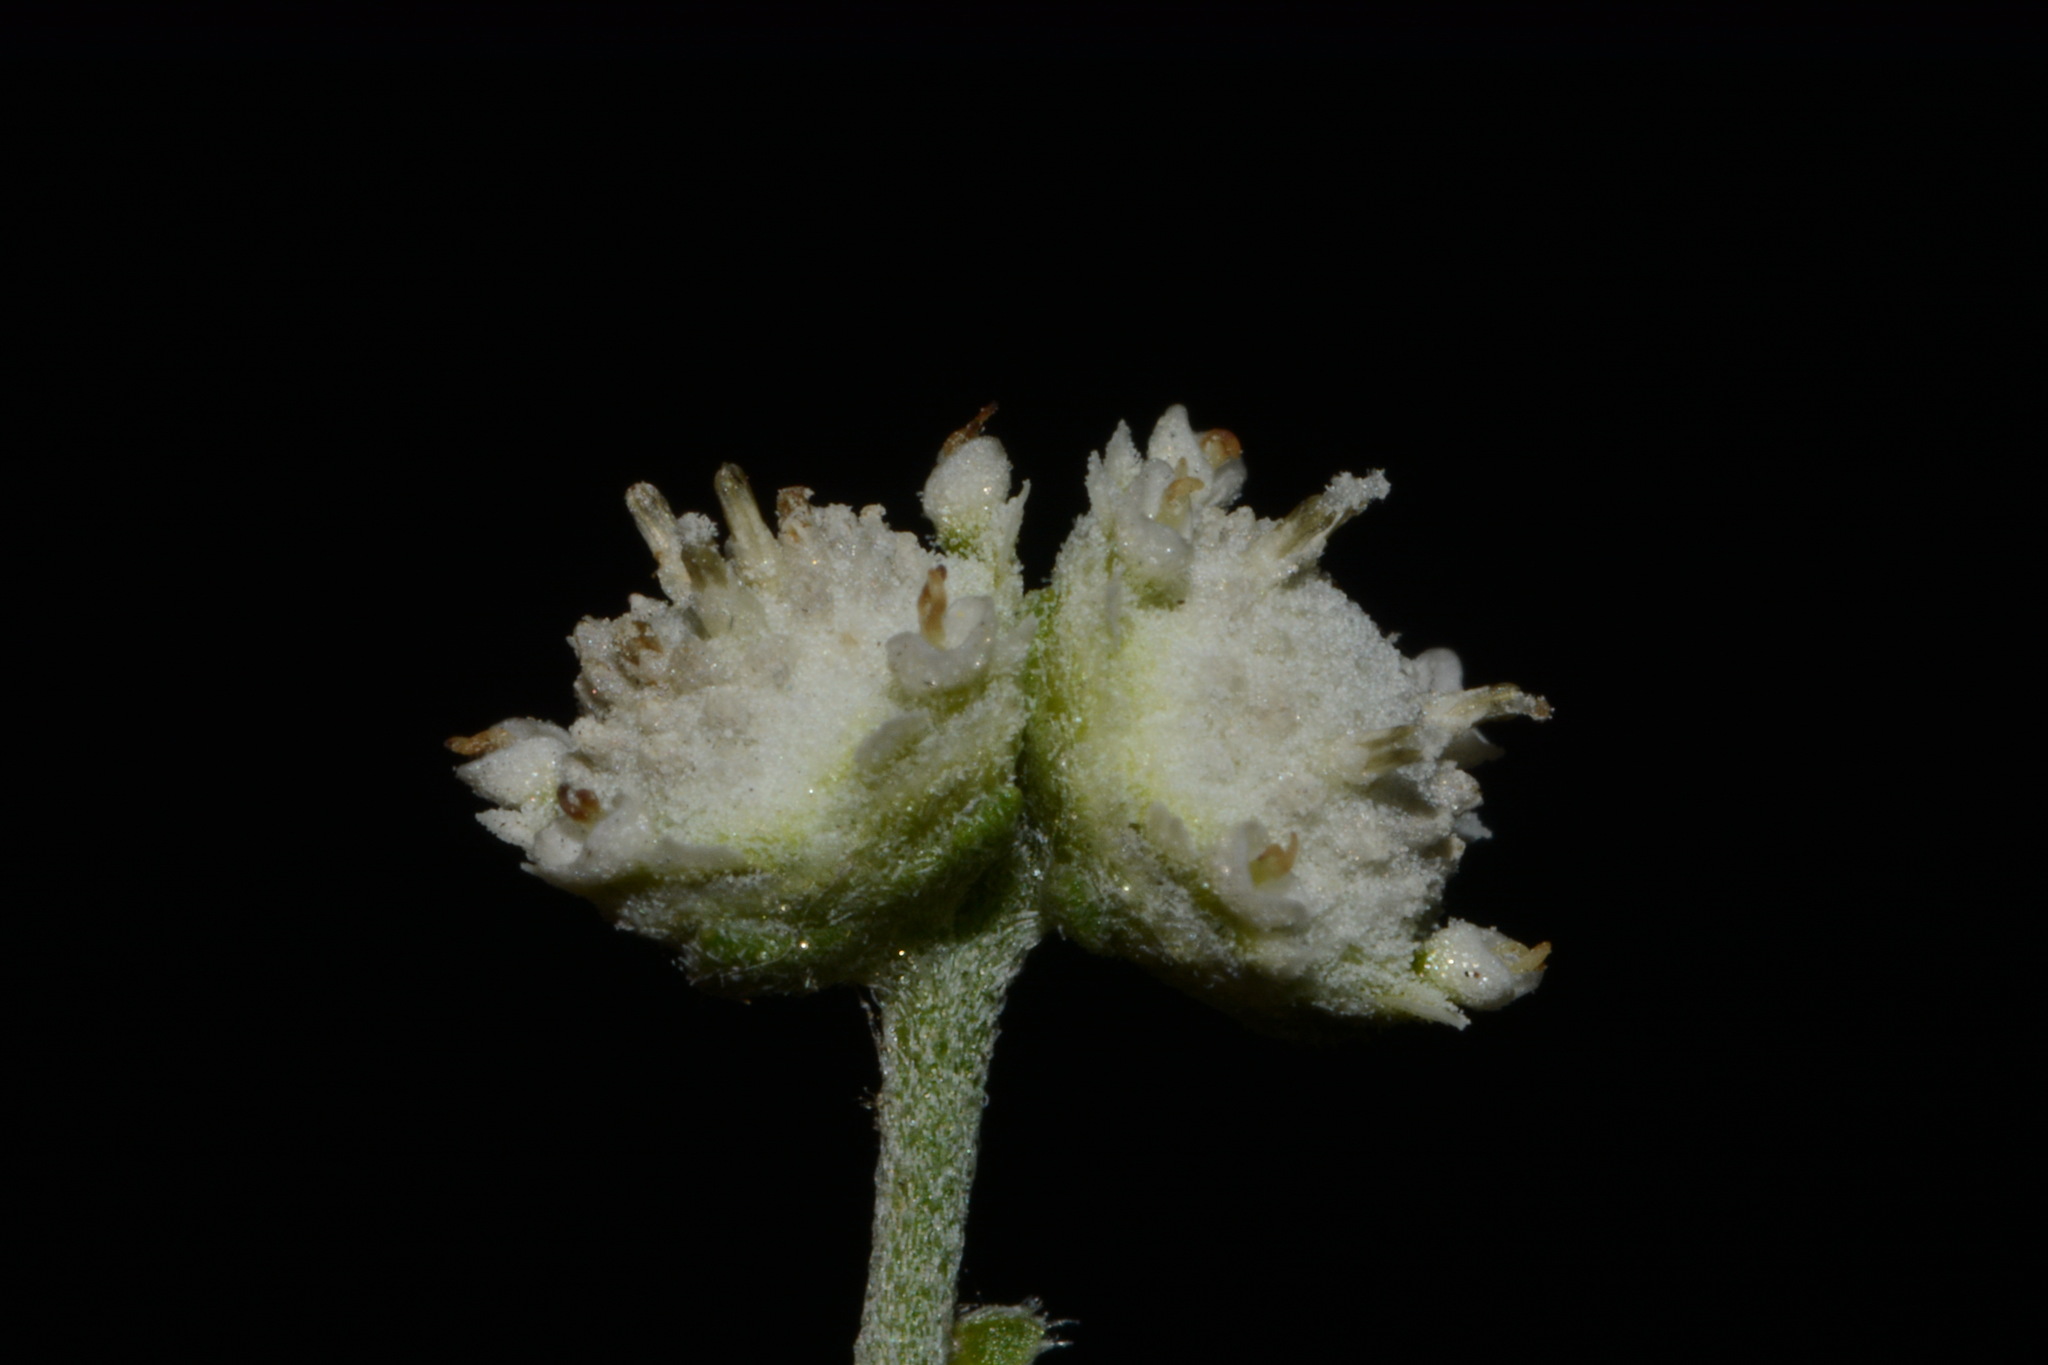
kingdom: Plantae
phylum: Tracheophyta
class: Magnoliopsida
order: Asterales
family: Asteraceae
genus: Parthenium
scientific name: Parthenium confertum
